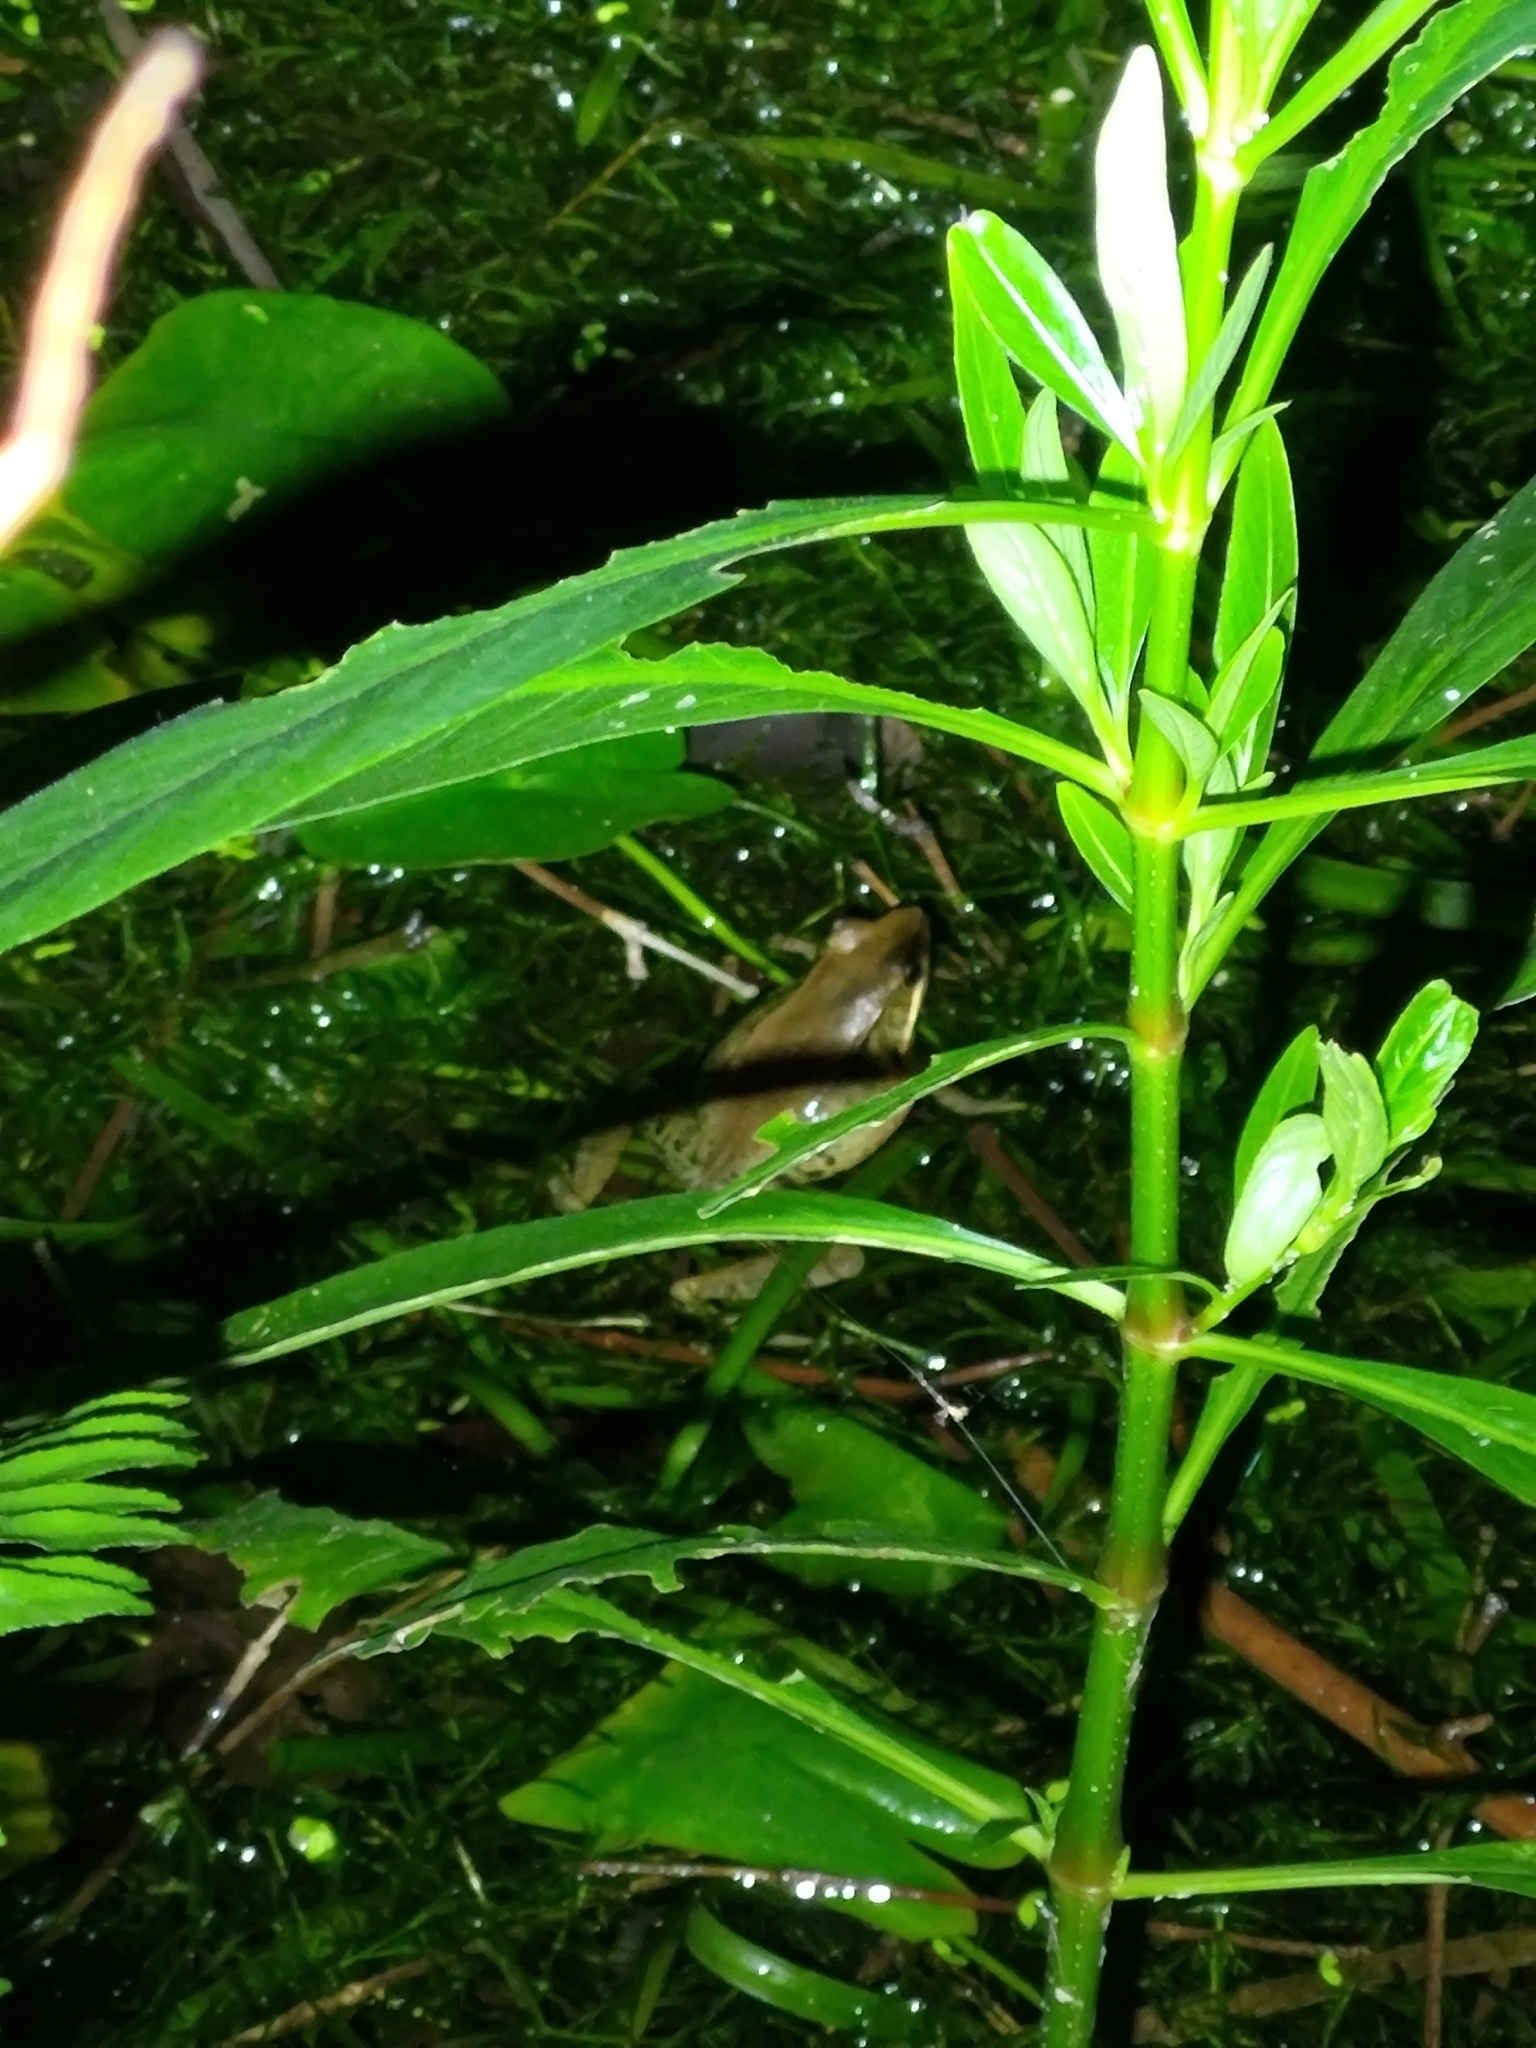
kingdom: Animalia
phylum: Chordata
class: Amphibia
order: Anura
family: Ranidae
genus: Nidirana
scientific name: Nidirana adenopleura
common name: Olive frog
